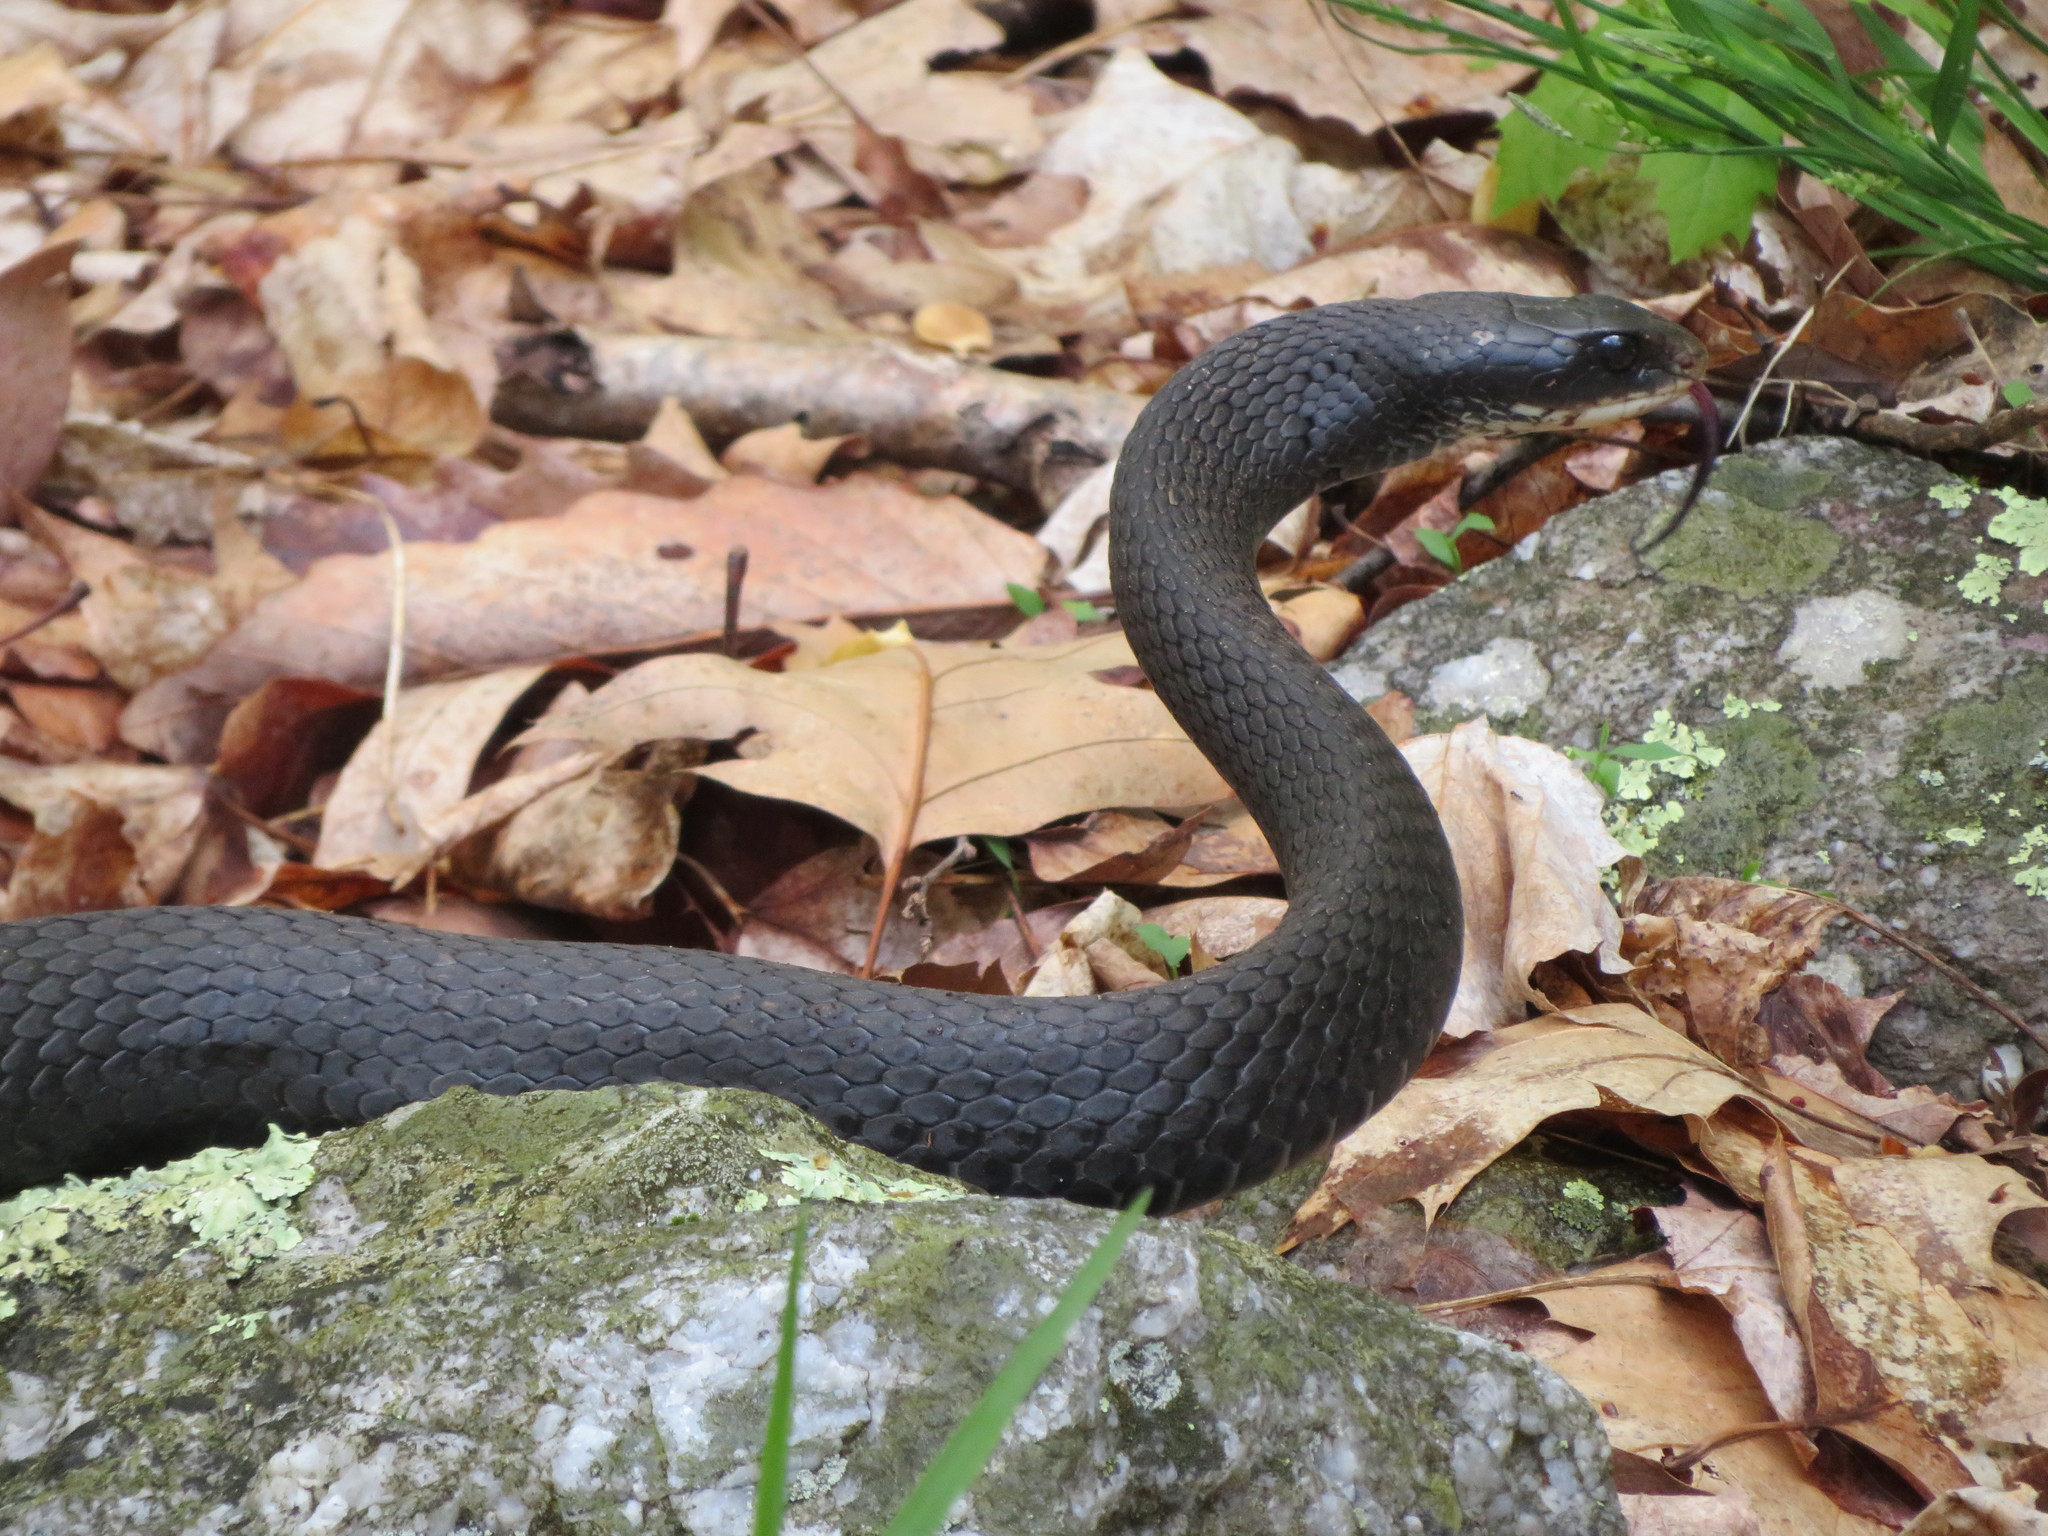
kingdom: Animalia
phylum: Chordata
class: Squamata
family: Colubridae
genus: Coluber
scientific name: Coluber constrictor
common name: Eastern racer
